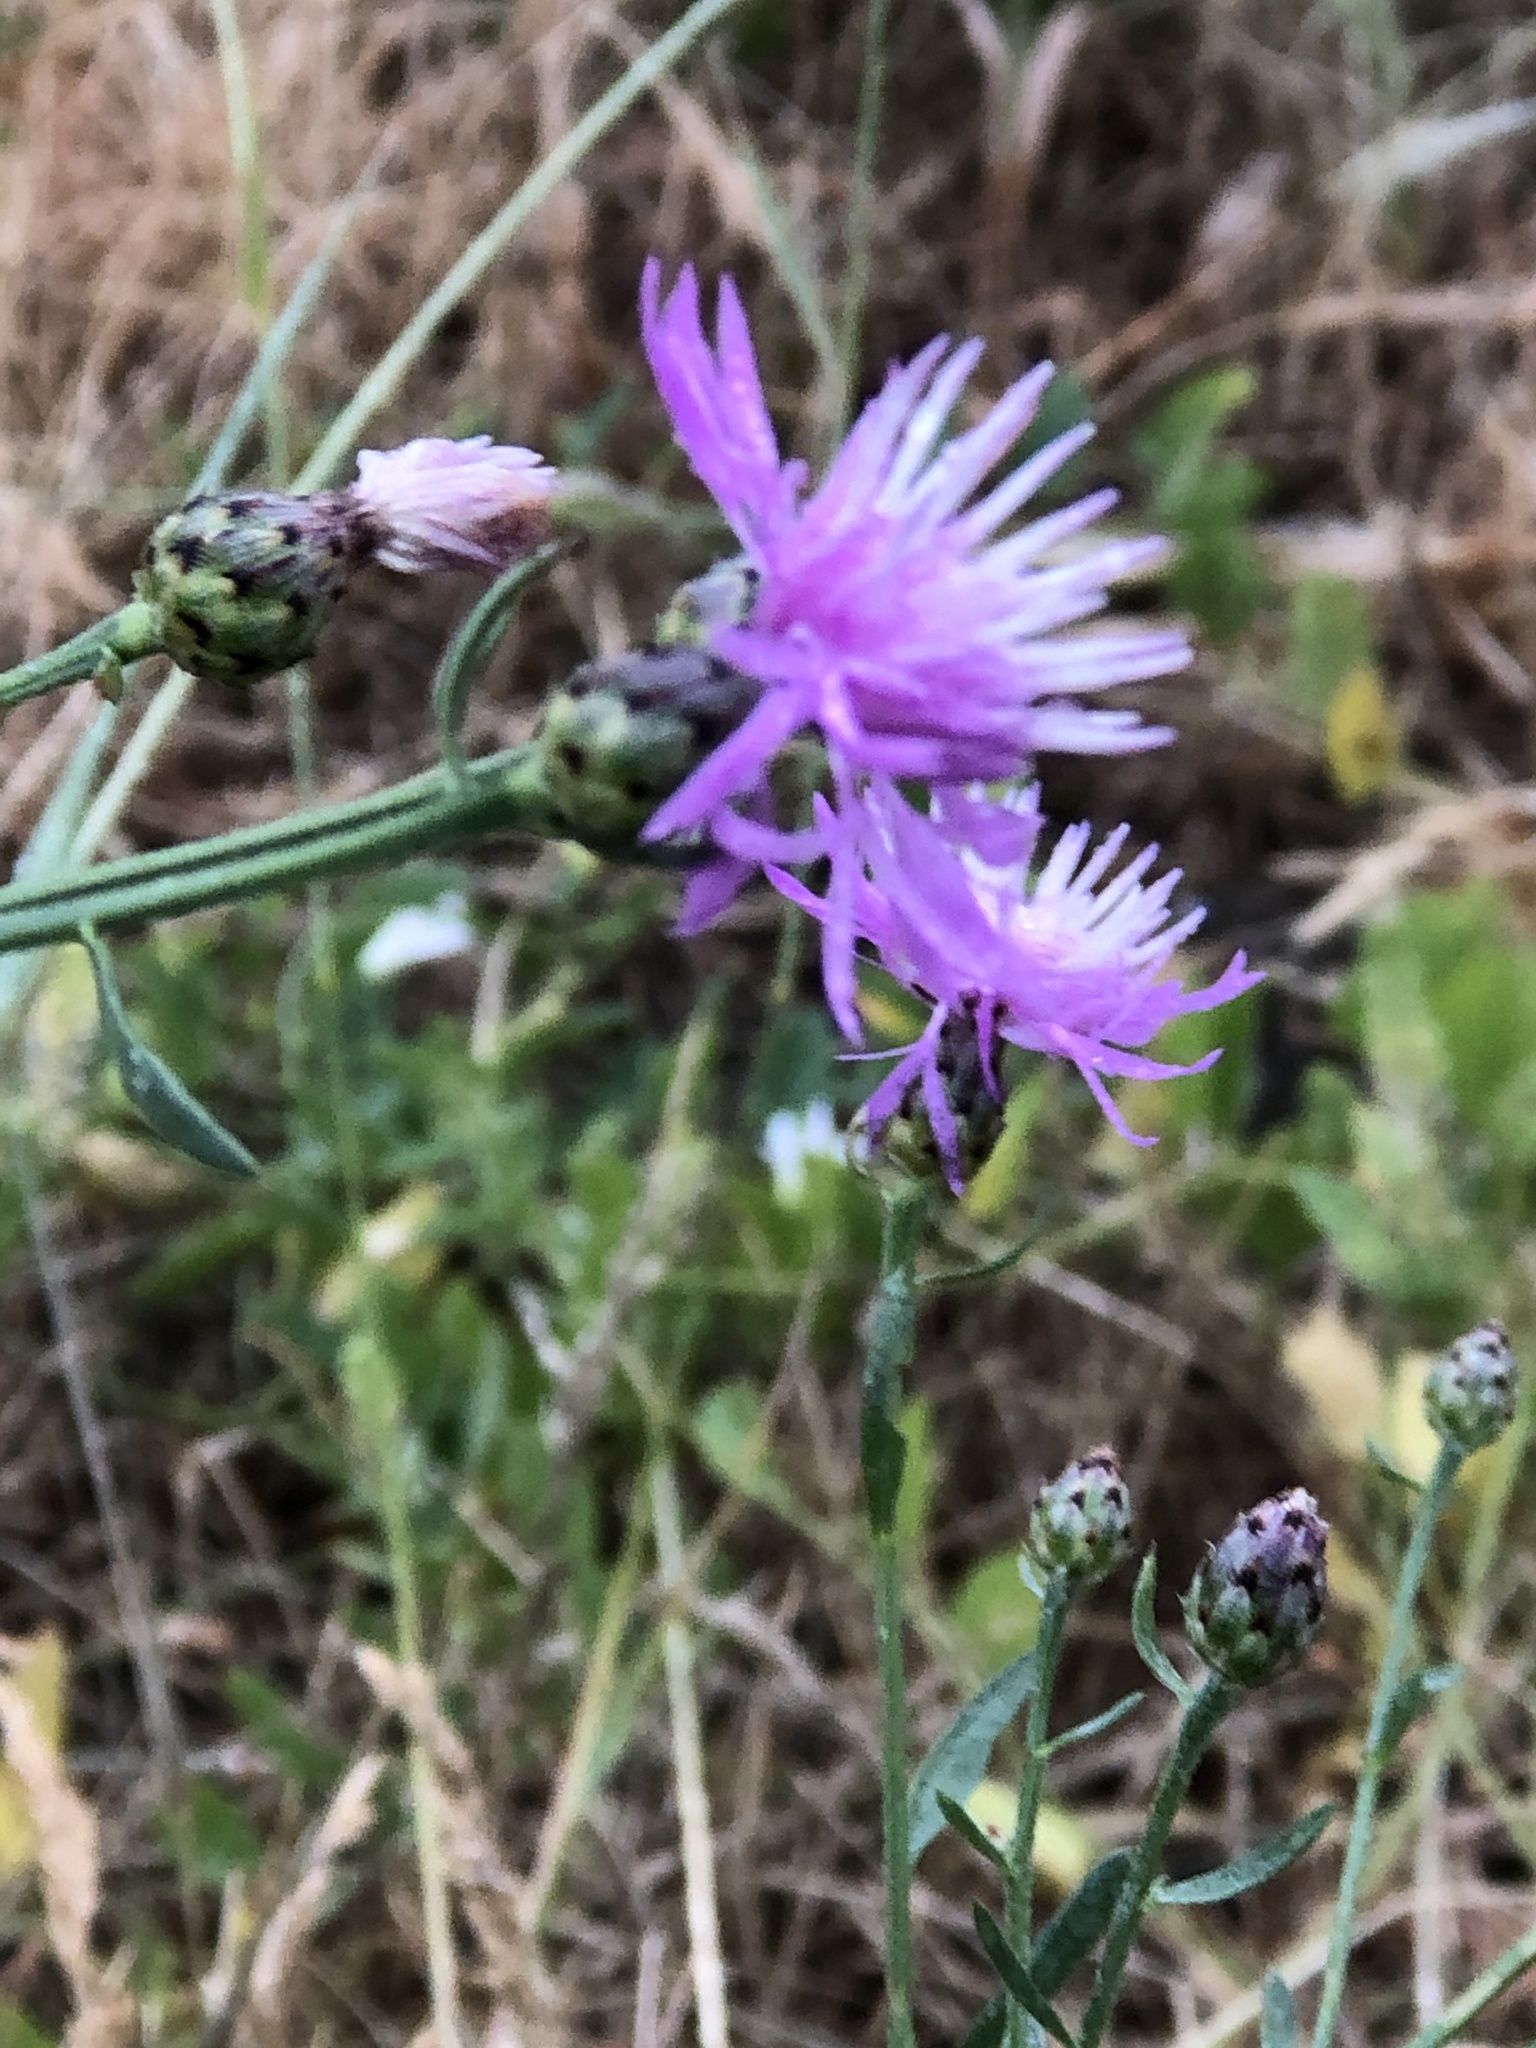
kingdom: Plantae
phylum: Tracheophyta
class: Magnoliopsida
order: Asterales
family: Asteraceae
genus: Centaurea
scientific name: Centaurea stoebe
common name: Spotted knapweed
